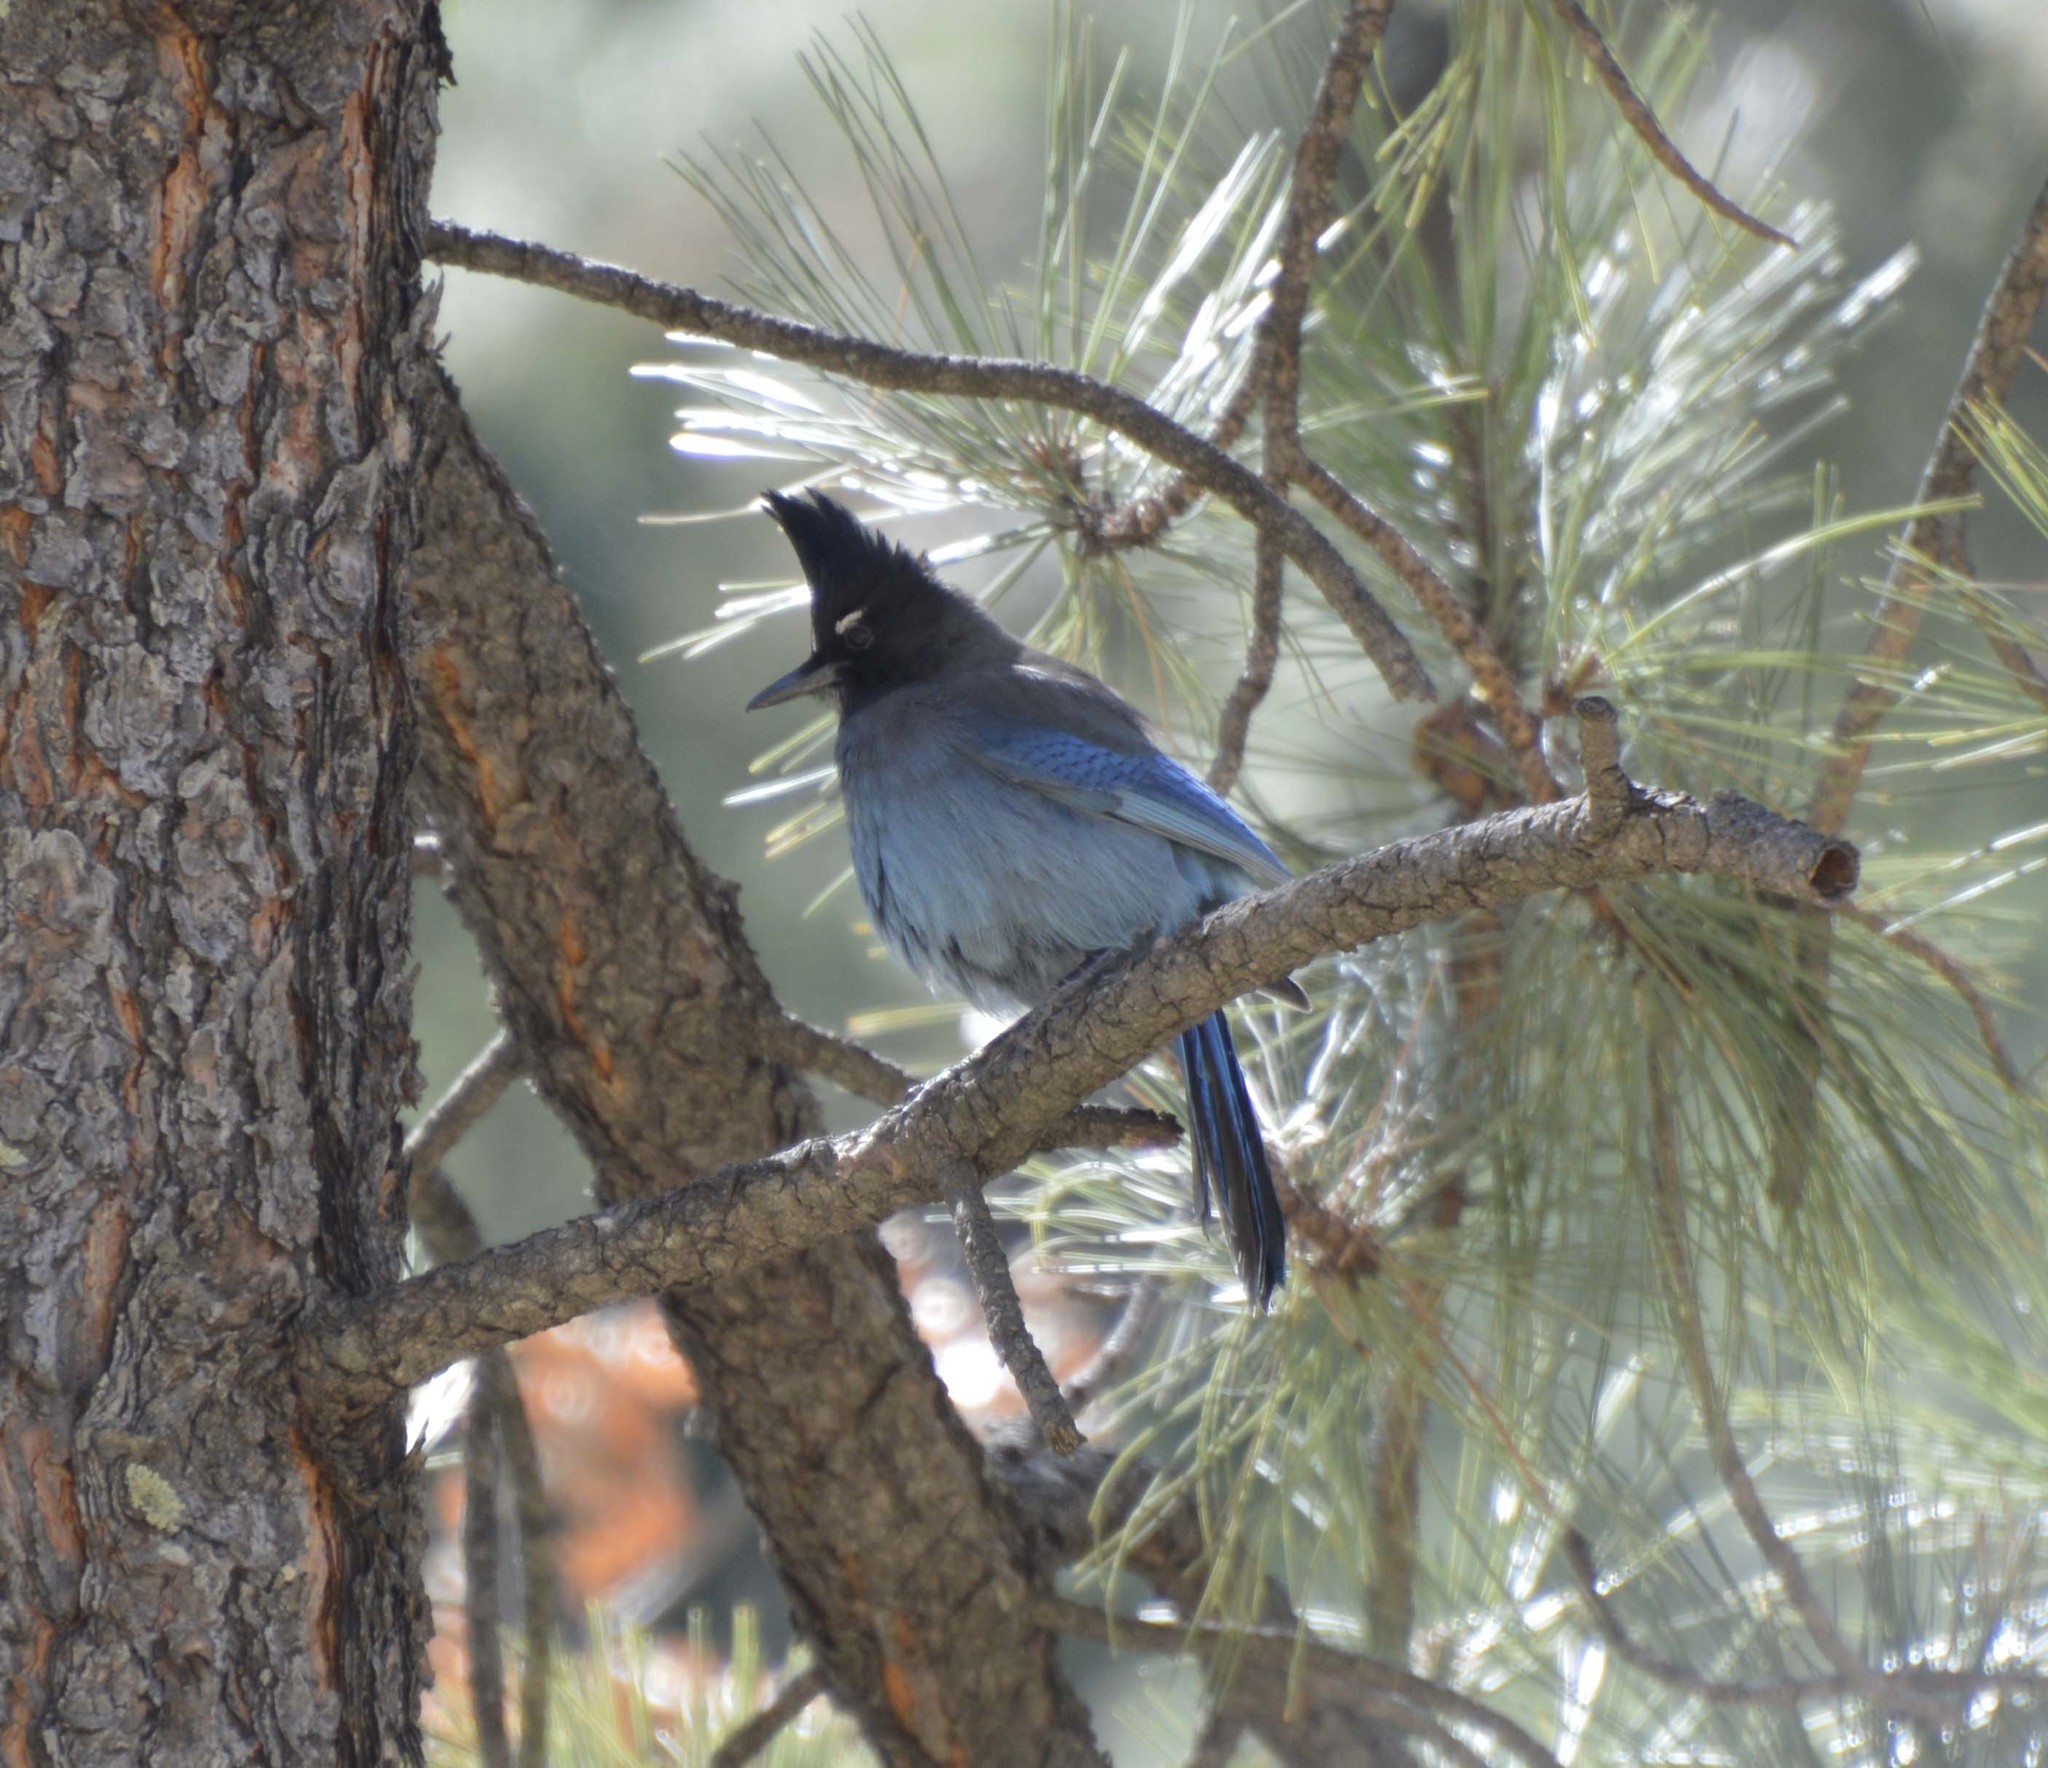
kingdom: Animalia
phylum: Chordata
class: Aves
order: Passeriformes
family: Corvidae
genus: Cyanocitta
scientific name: Cyanocitta stelleri
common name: Steller's jay
